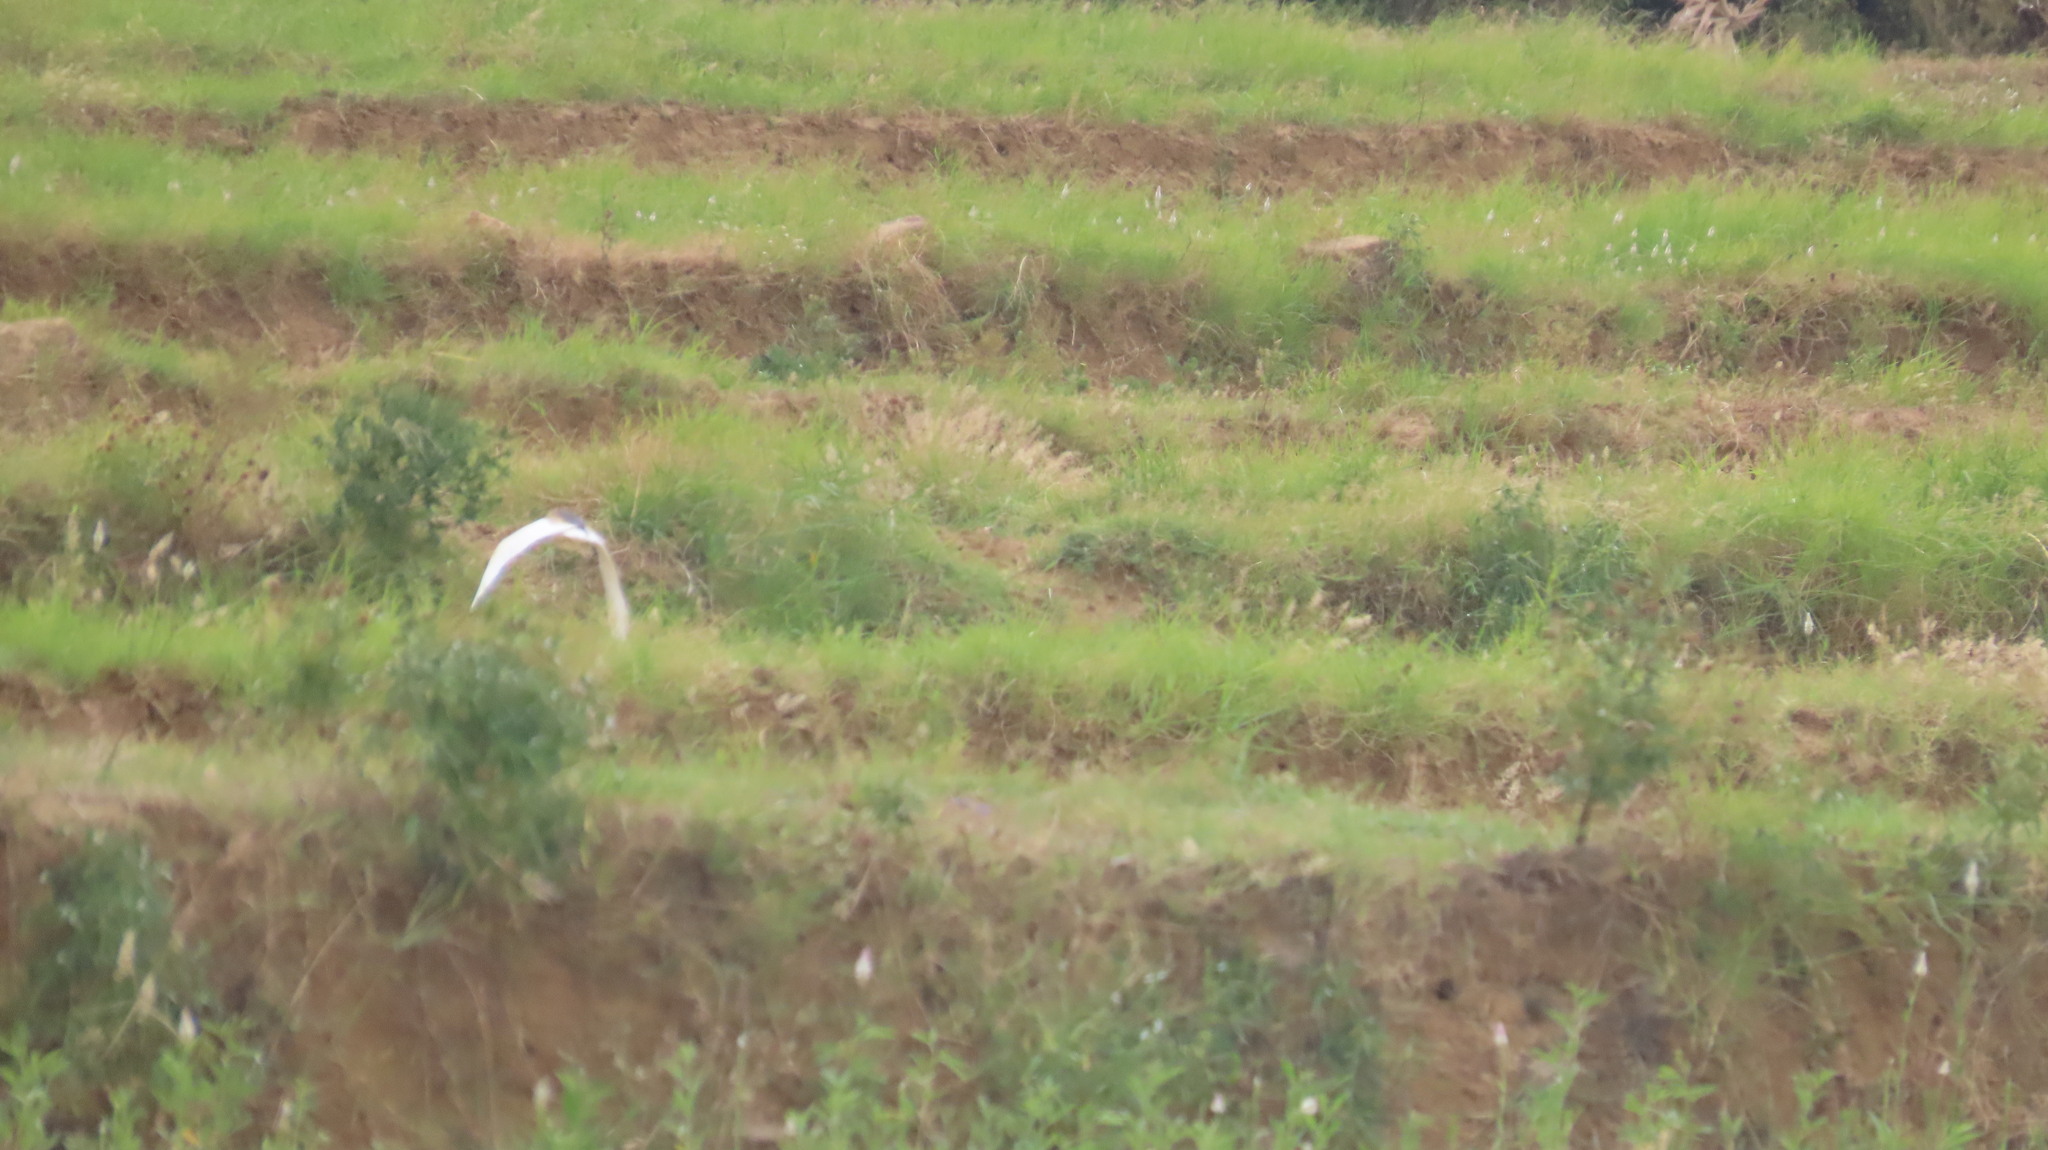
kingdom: Animalia
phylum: Chordata
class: Aves
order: Pelecaniformes
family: Ardeidae
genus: Ardeola
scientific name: Ardeola grayii
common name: Indian pond heron
